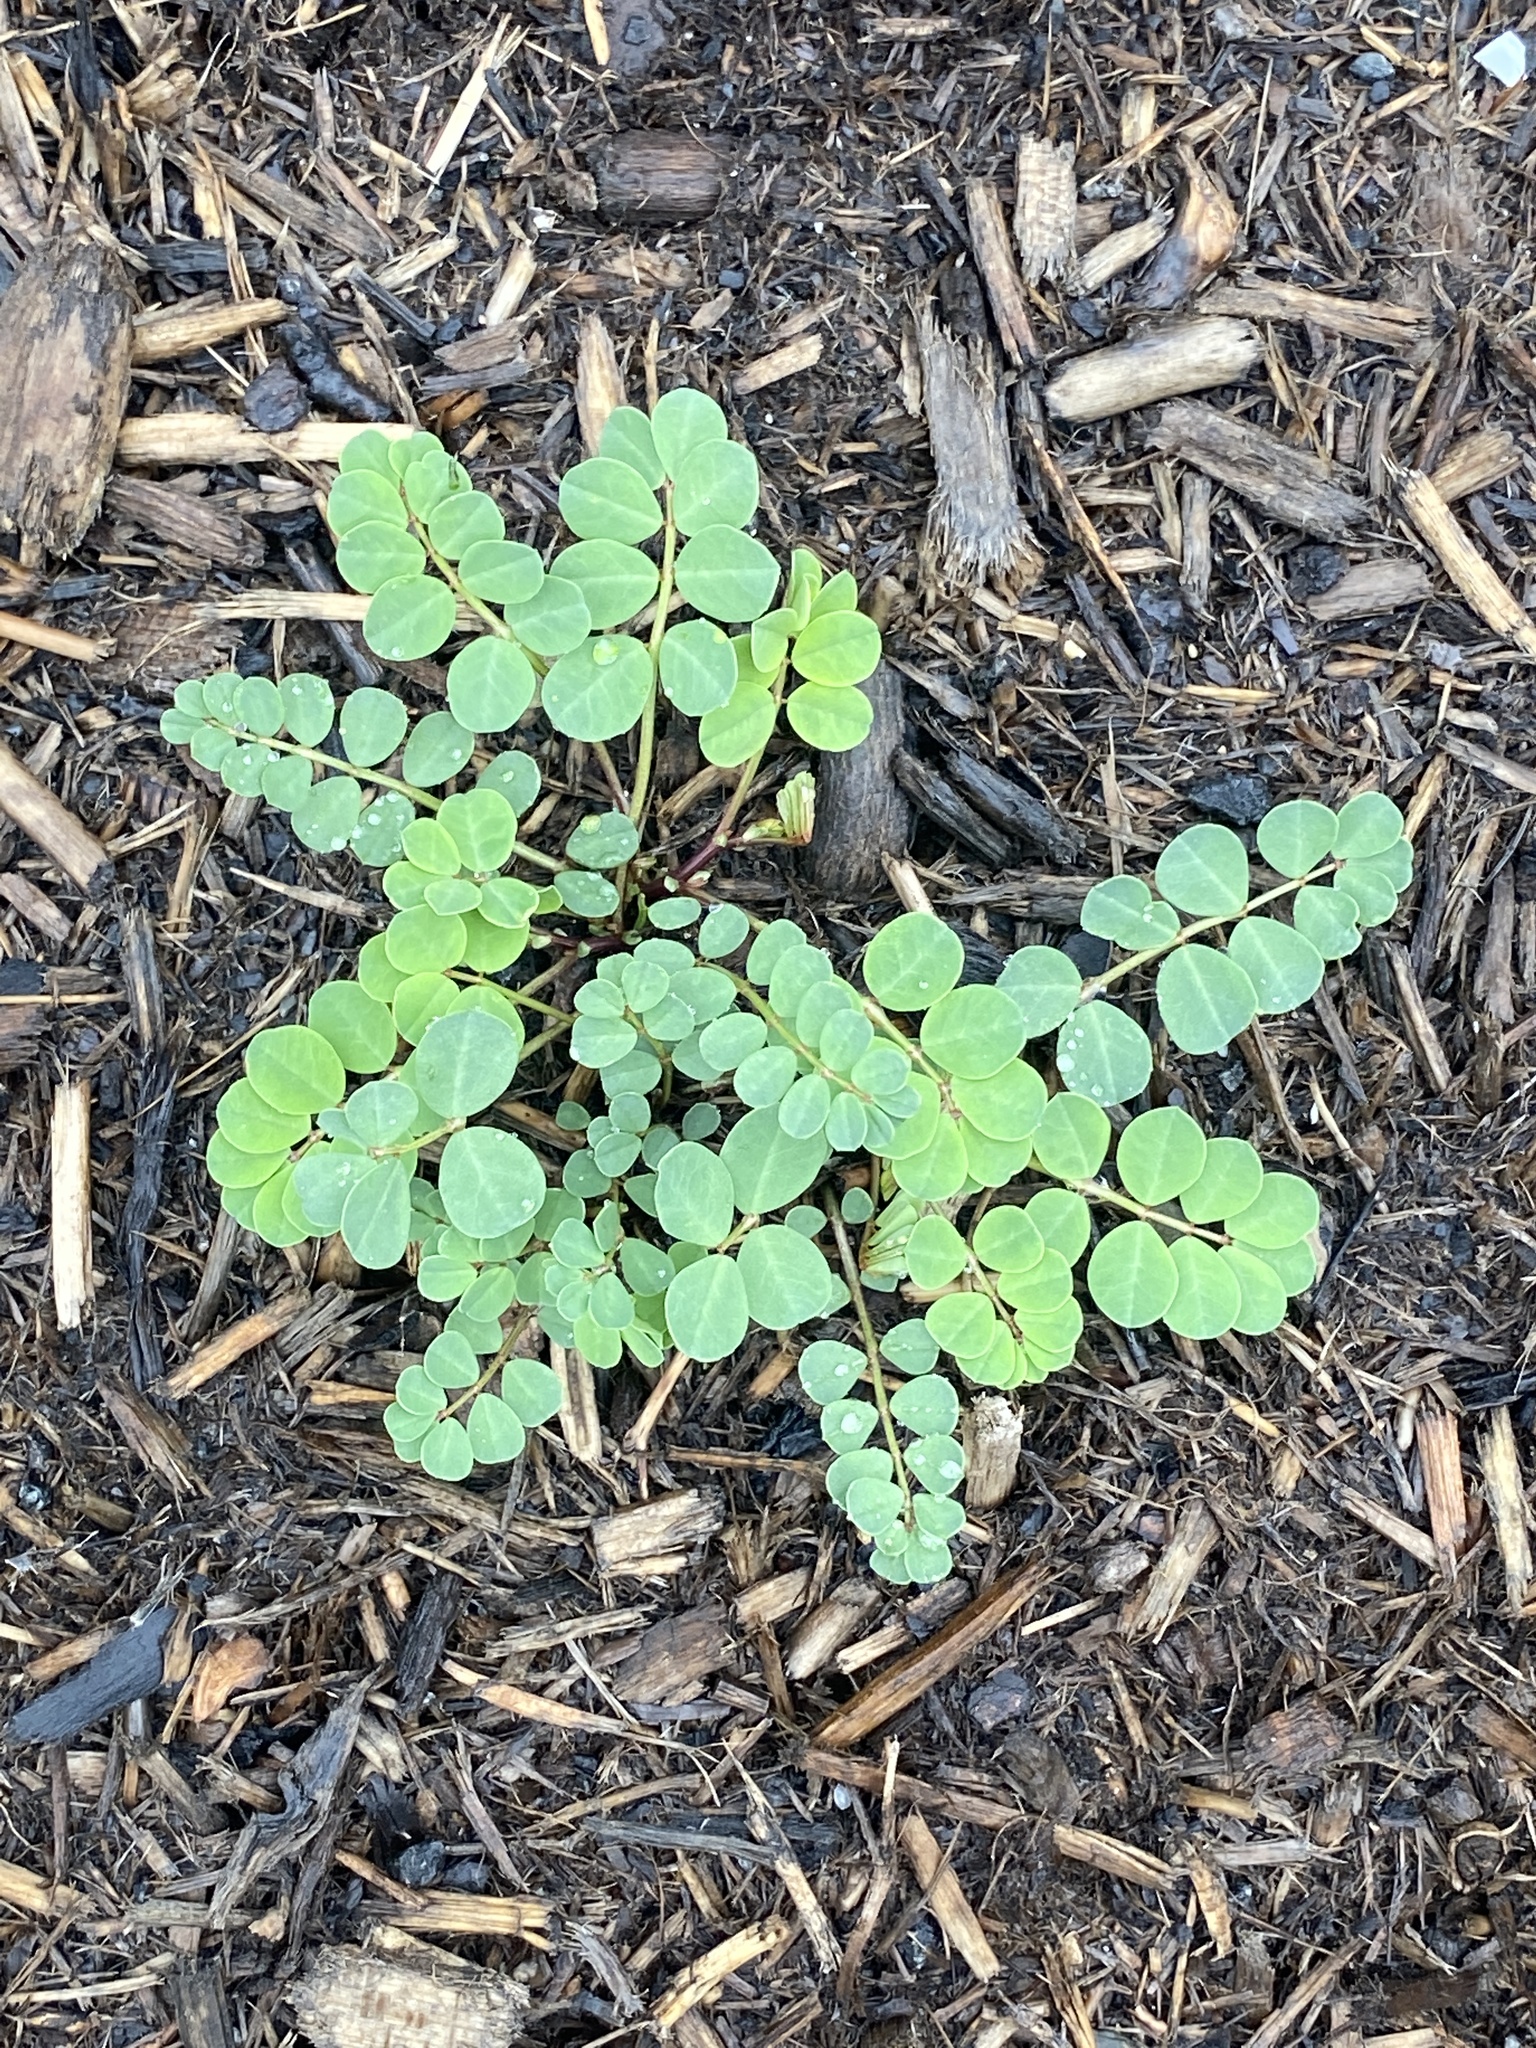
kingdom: Plantae
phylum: Tracheophyta
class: Magnoliopsida
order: Fabales
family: Fabaceae
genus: Coronilla
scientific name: Coronilla varia
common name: Crownvetch
